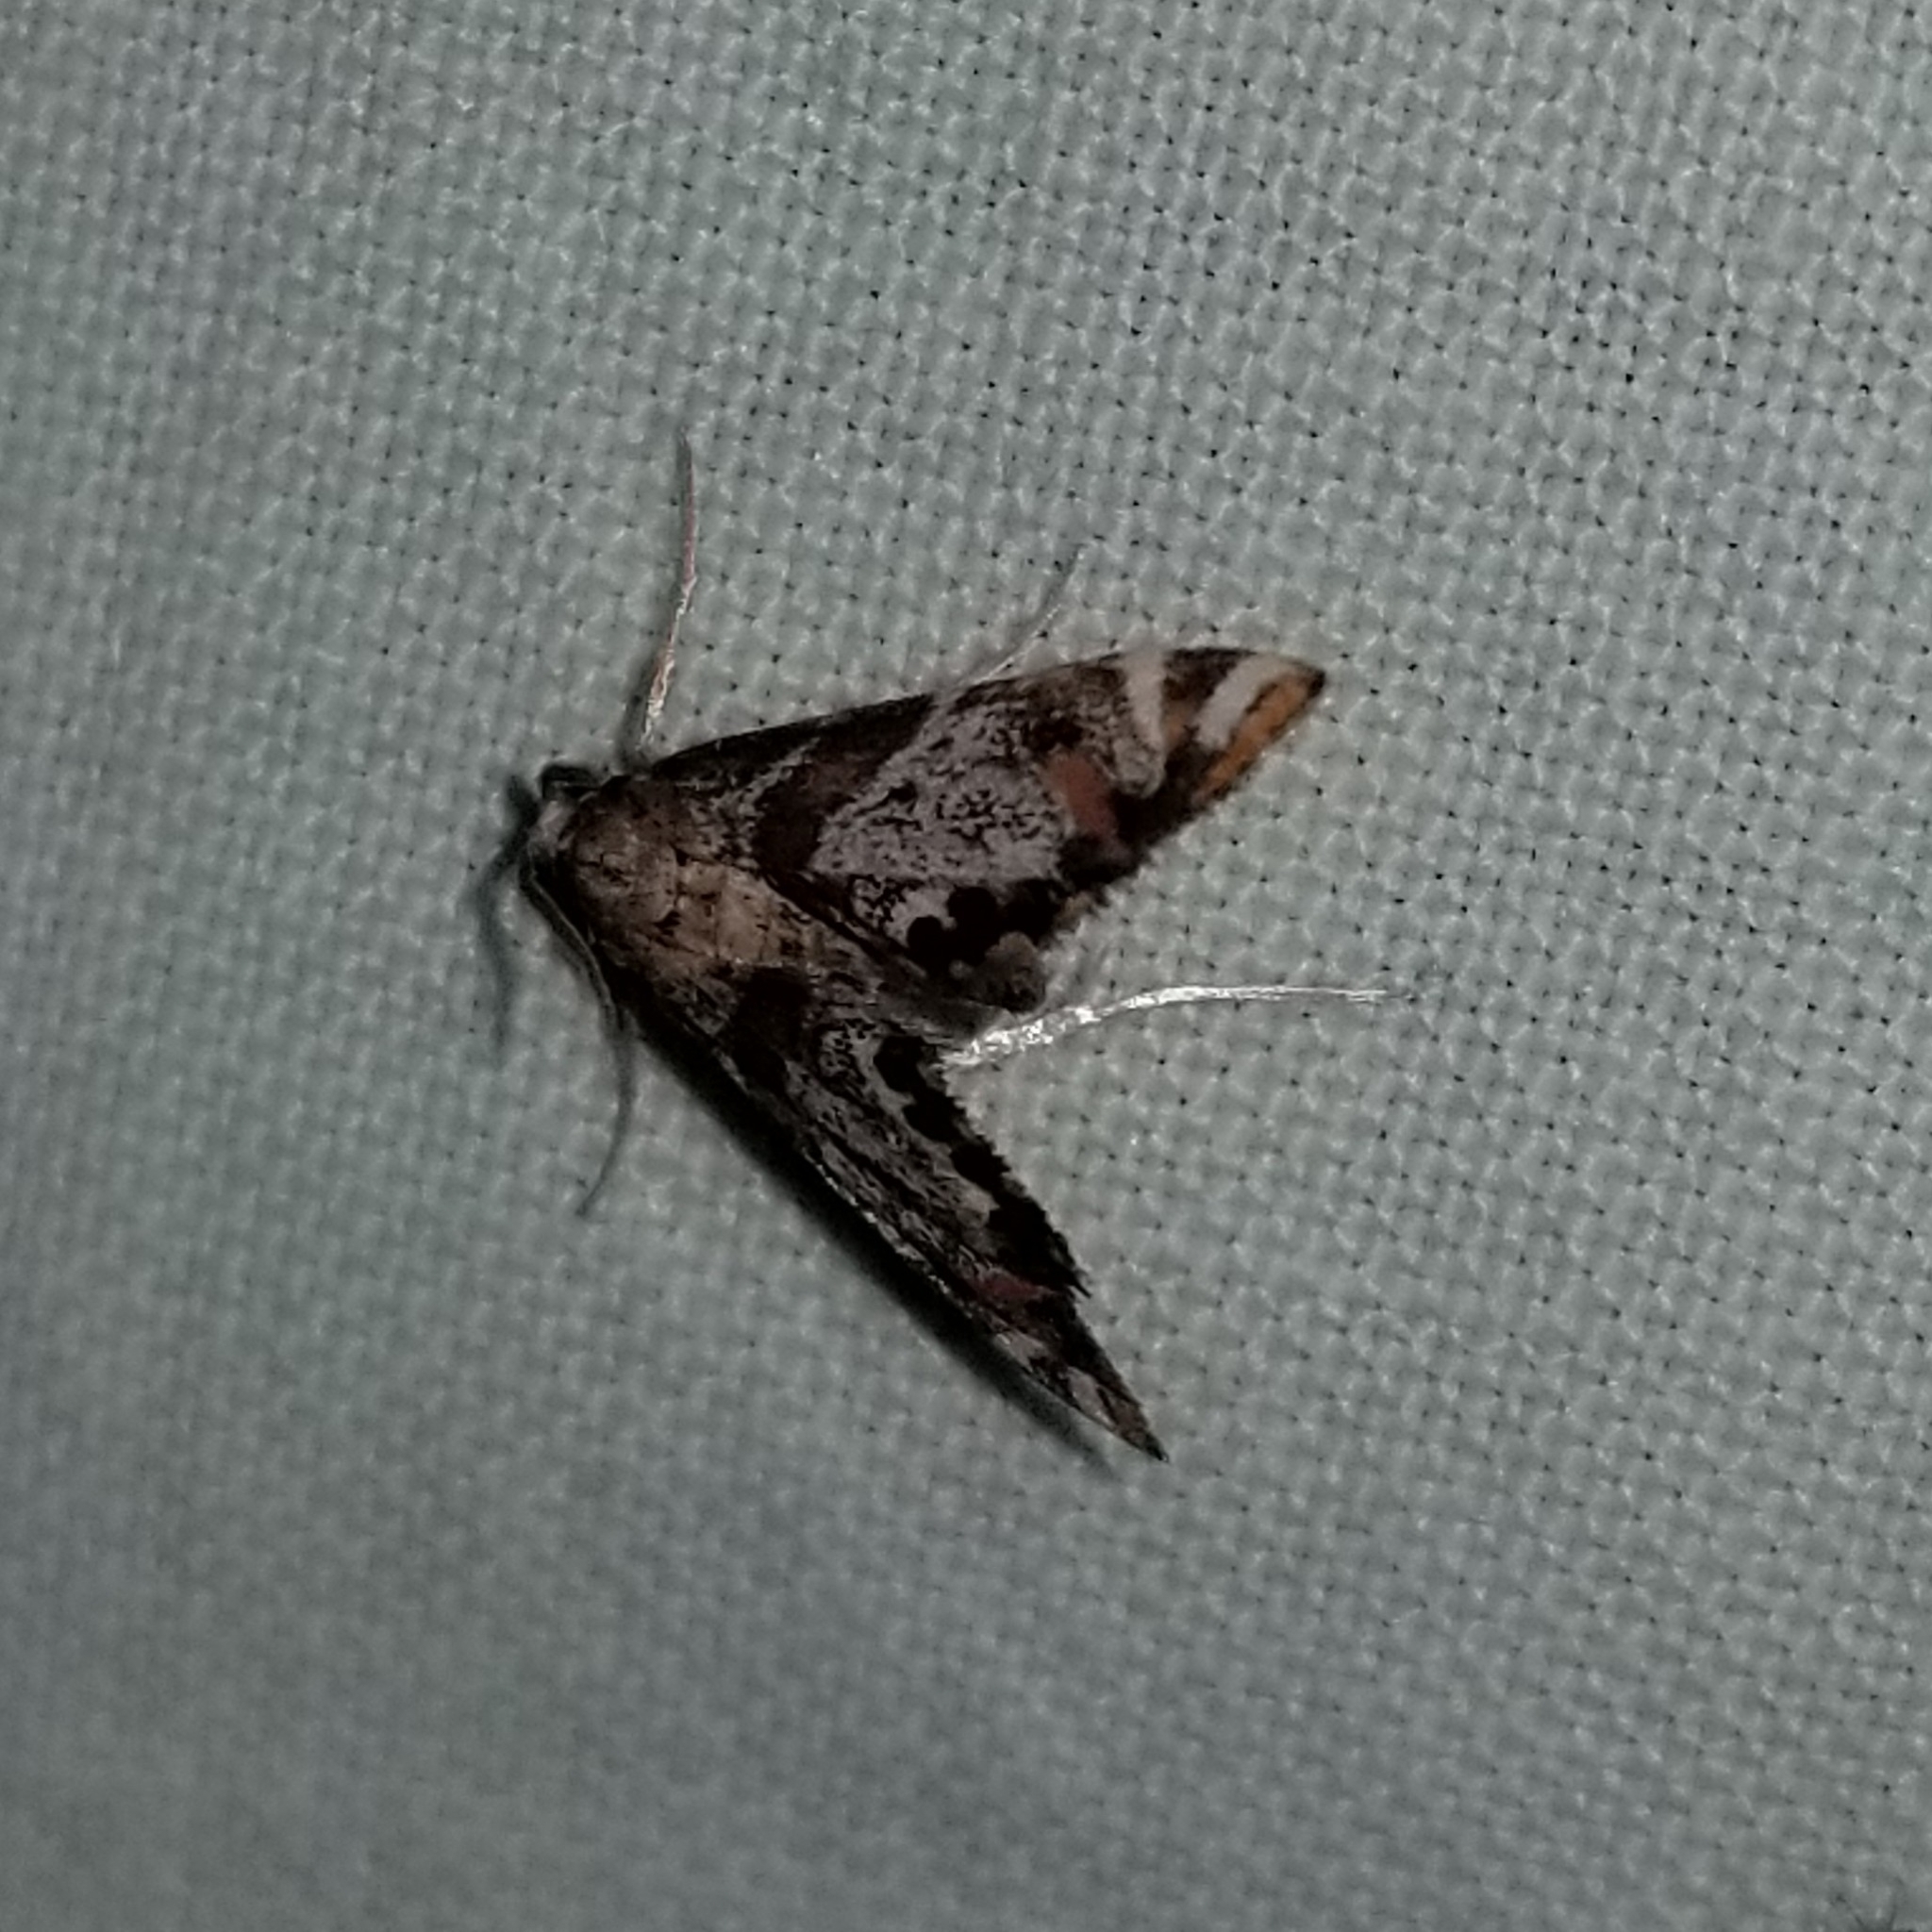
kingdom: Animalia
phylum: Arthropoda
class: Insecta
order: Lepidoptera
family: Crambidae
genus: Petrophila
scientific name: Petrophila jaliscalis
